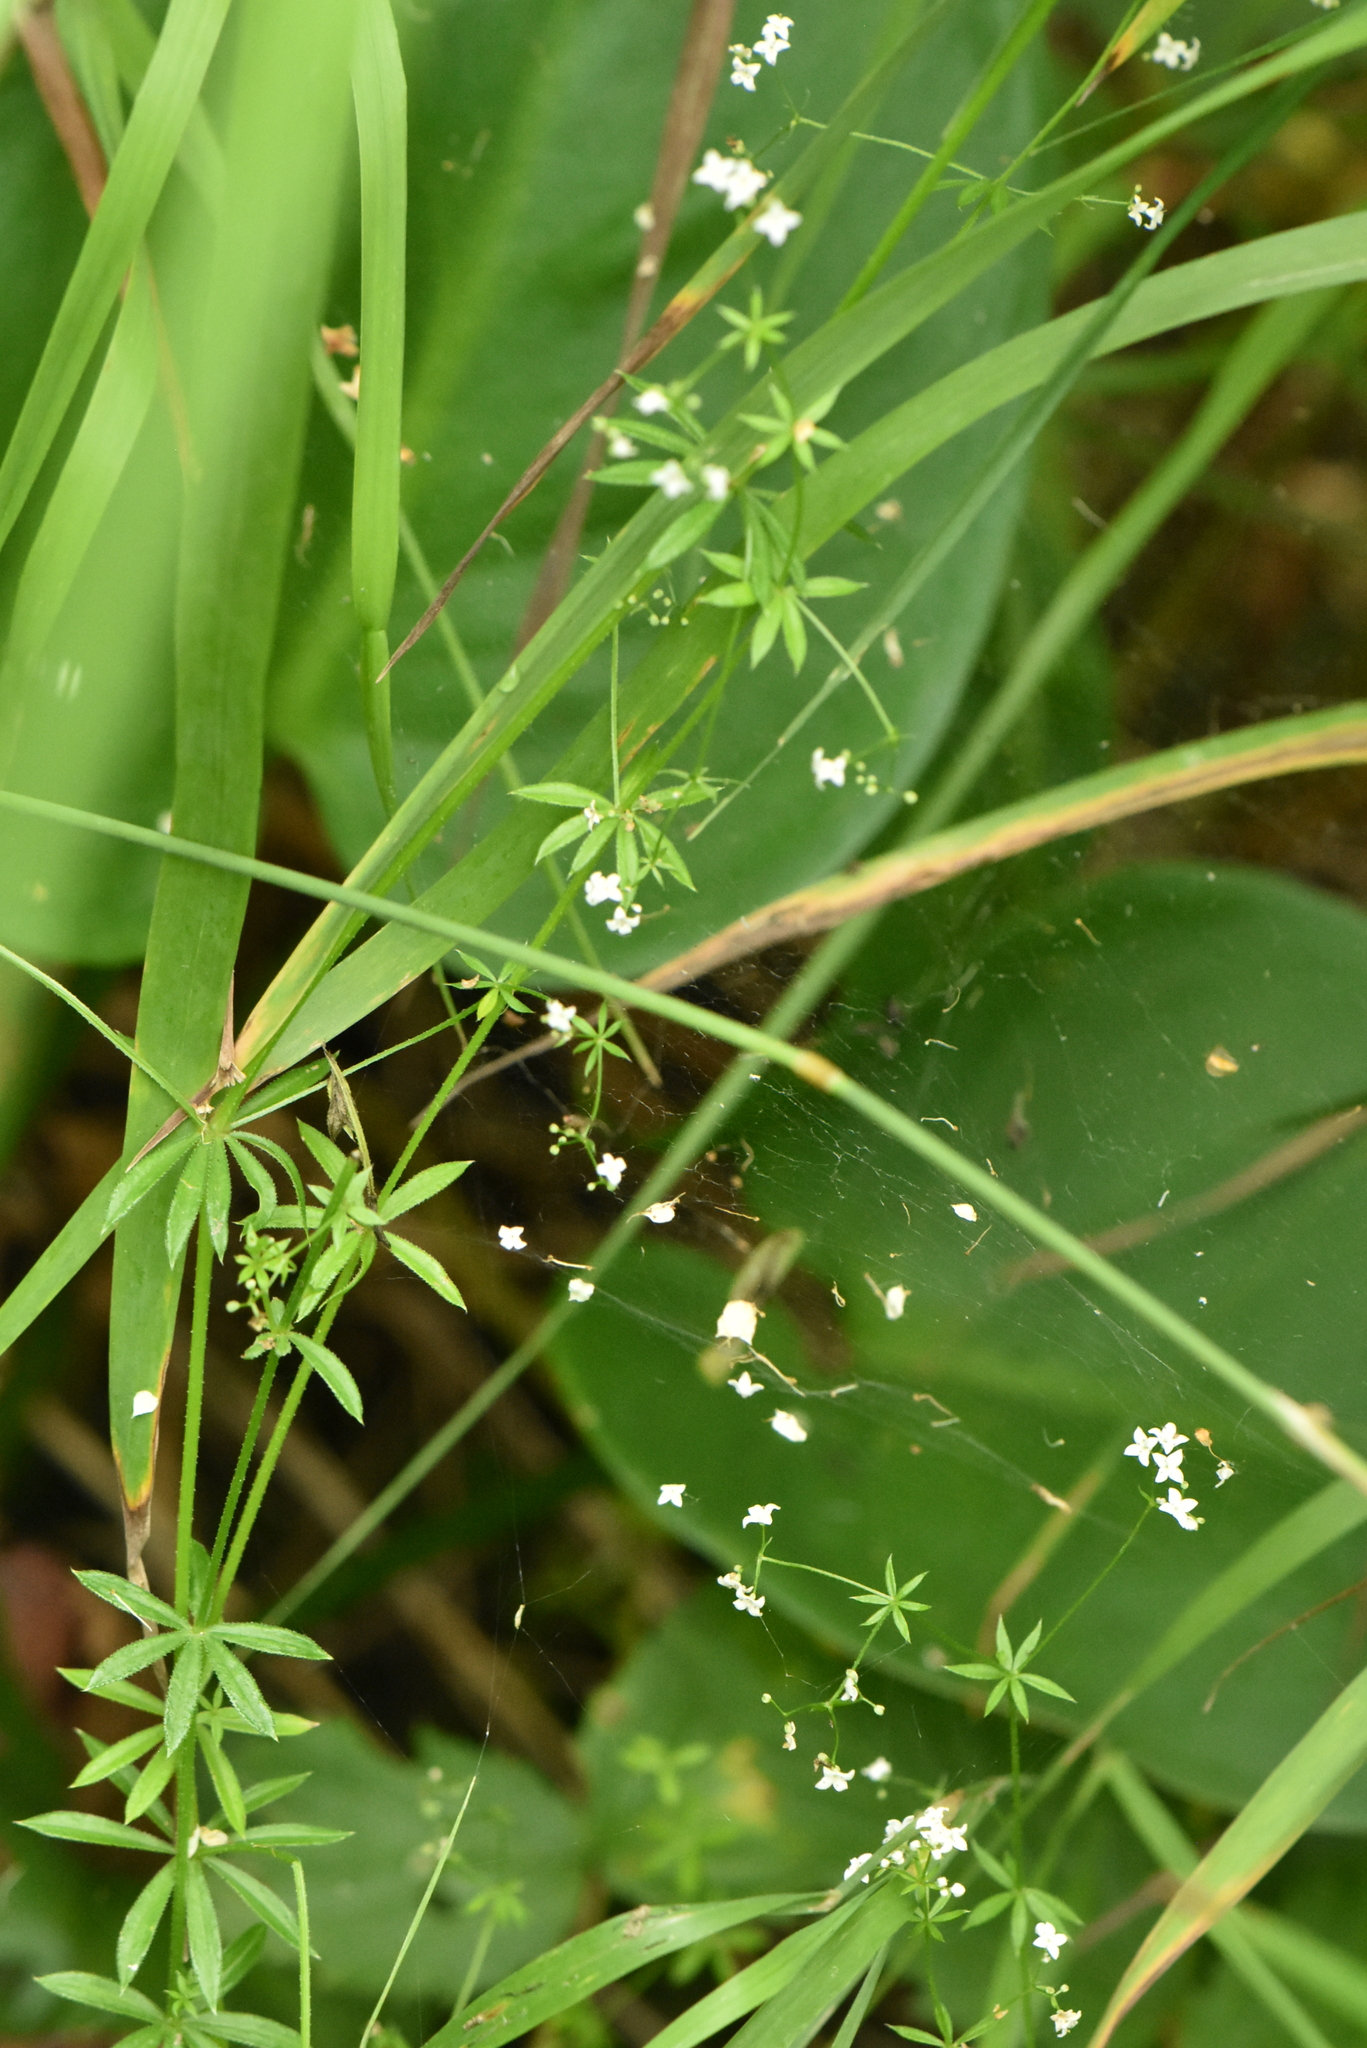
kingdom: Plantae
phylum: Tracheophyta
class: Magnoliopsida
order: Gentianales
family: Rubiaceae
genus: Galium
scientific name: Galium uliginosum
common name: Fen bedstraw
